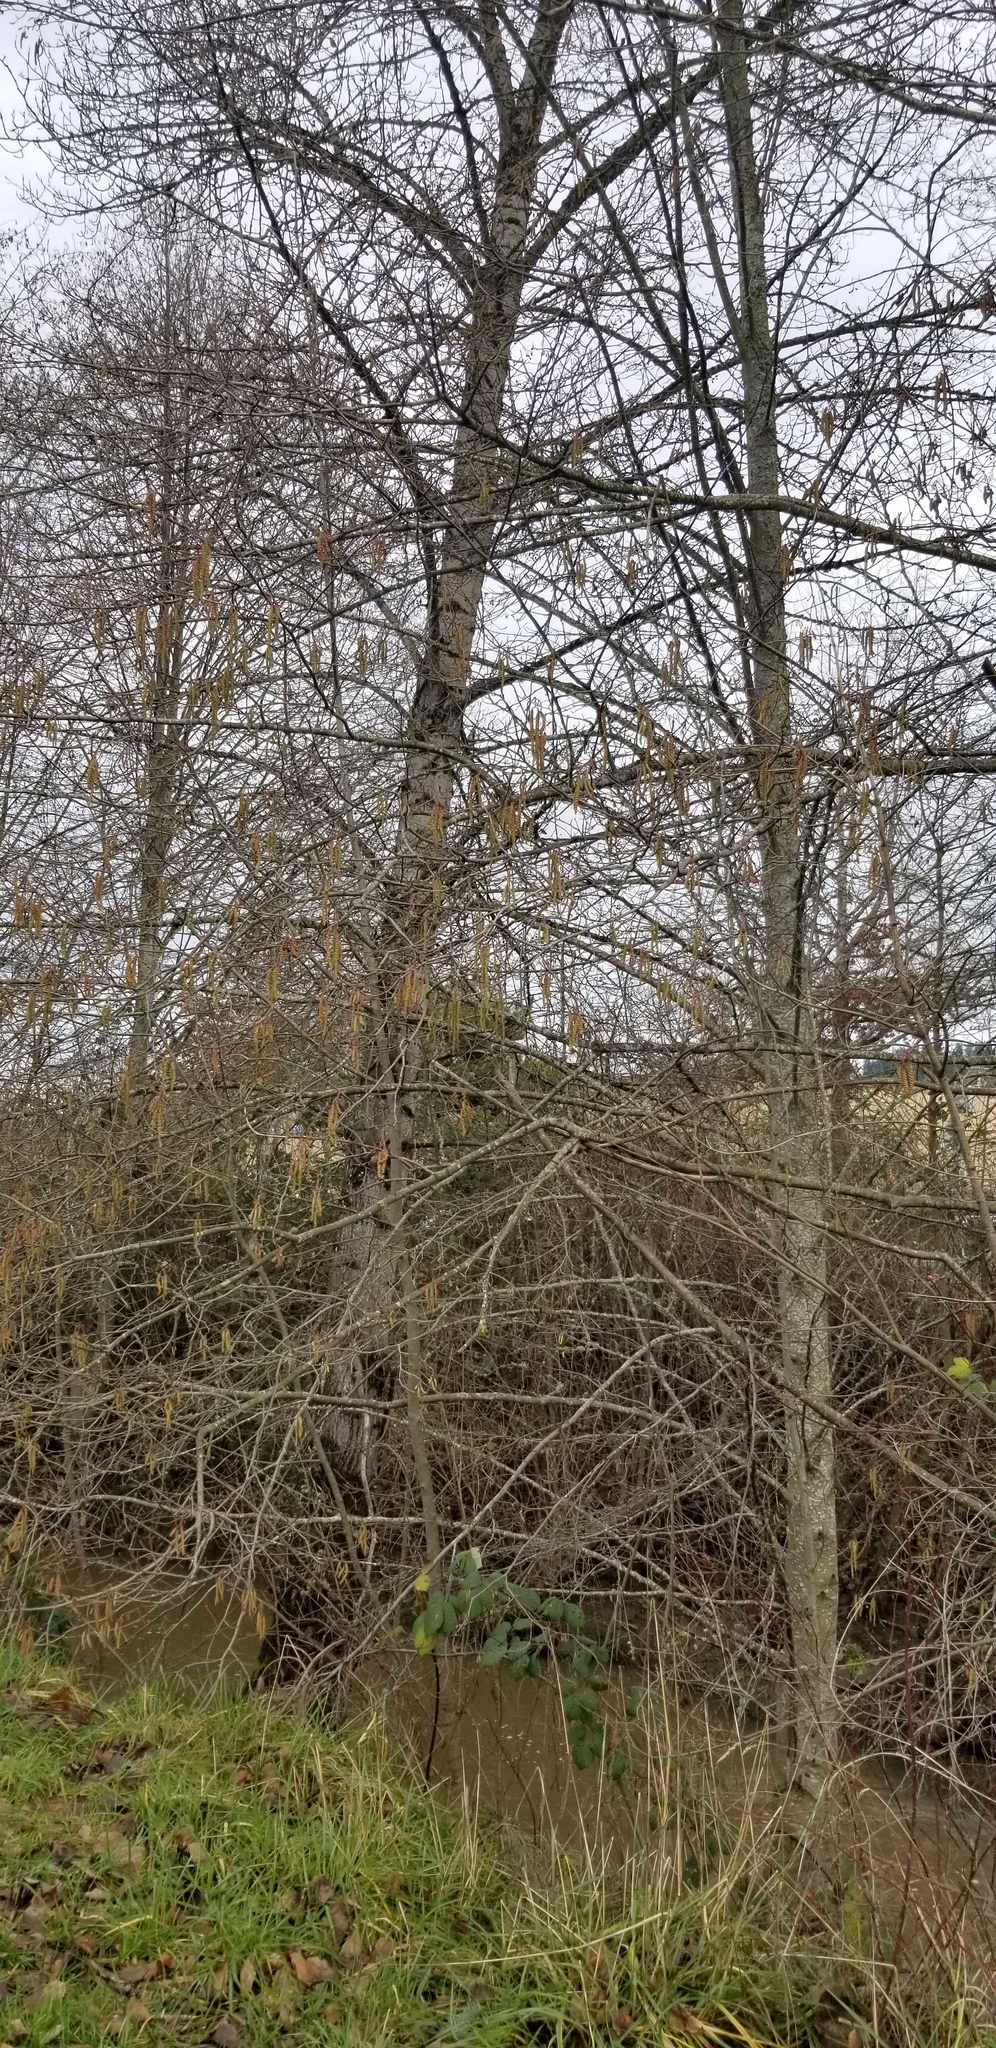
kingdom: Plantae
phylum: Tracheophyta
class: Magnoliopsida
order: Fagales
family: Betulaceae
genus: Alnus
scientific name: Alnus rhombifolia
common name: California alder
